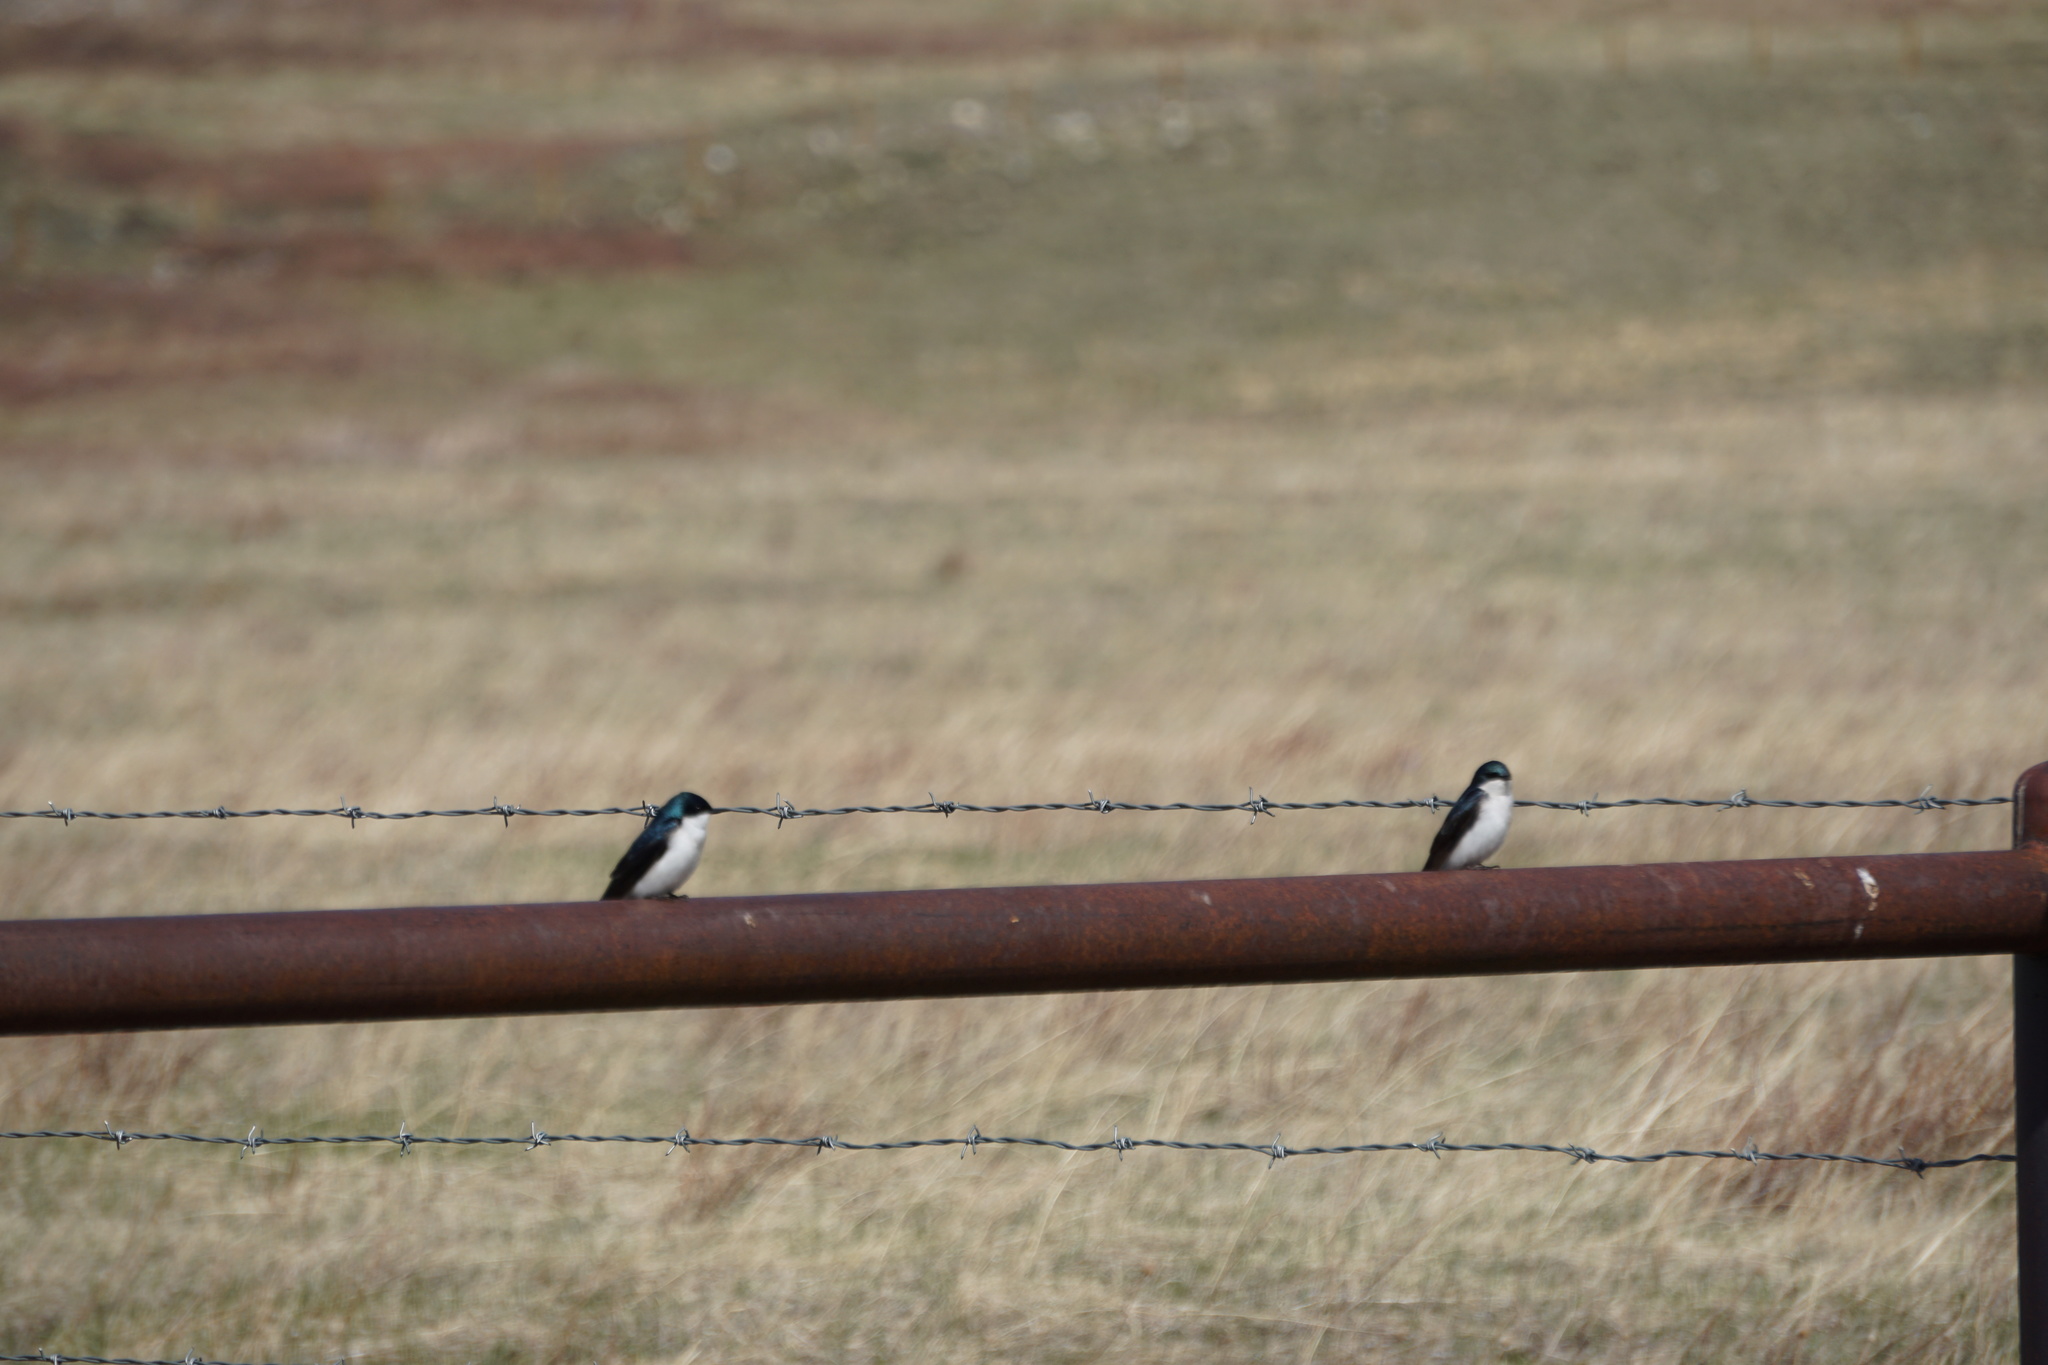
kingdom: Animalia
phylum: Chordata
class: Aves
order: Passeriformes
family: Hirundinidae
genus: Tachycineta
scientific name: Tachycineta bicolor
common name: Tree swallow
